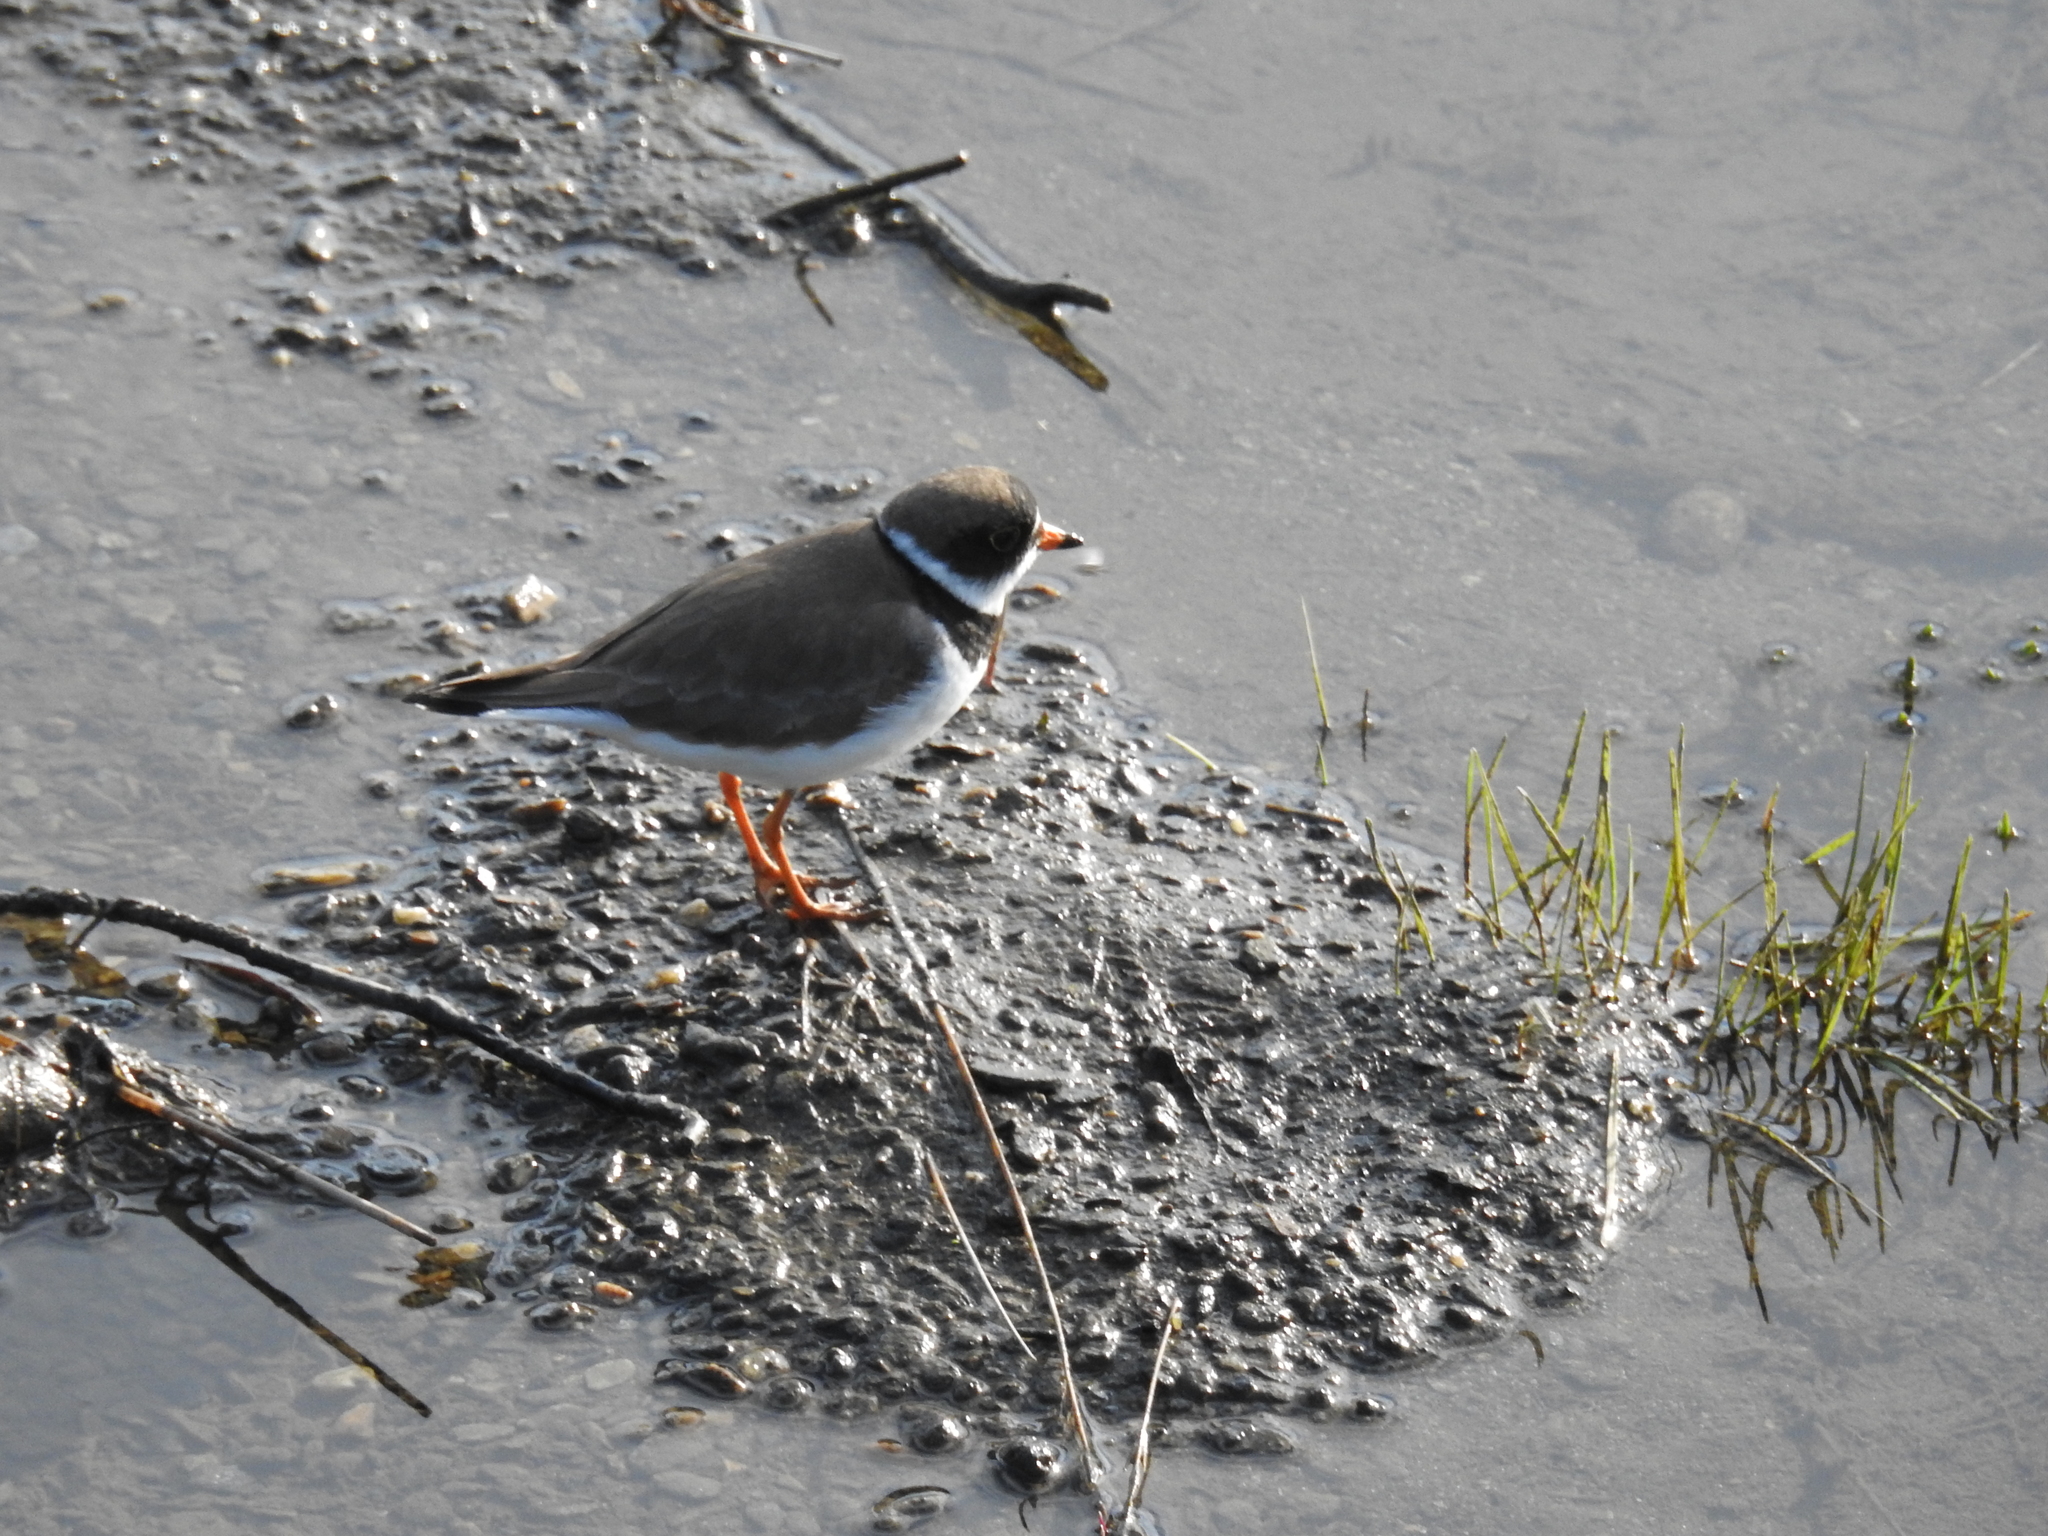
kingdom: Animalia
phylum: Chordata
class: Aves
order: Charadriiformes
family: Charadriidae
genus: Charadrius
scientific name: Charadrius semipalmatus
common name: Semipalmated plover
